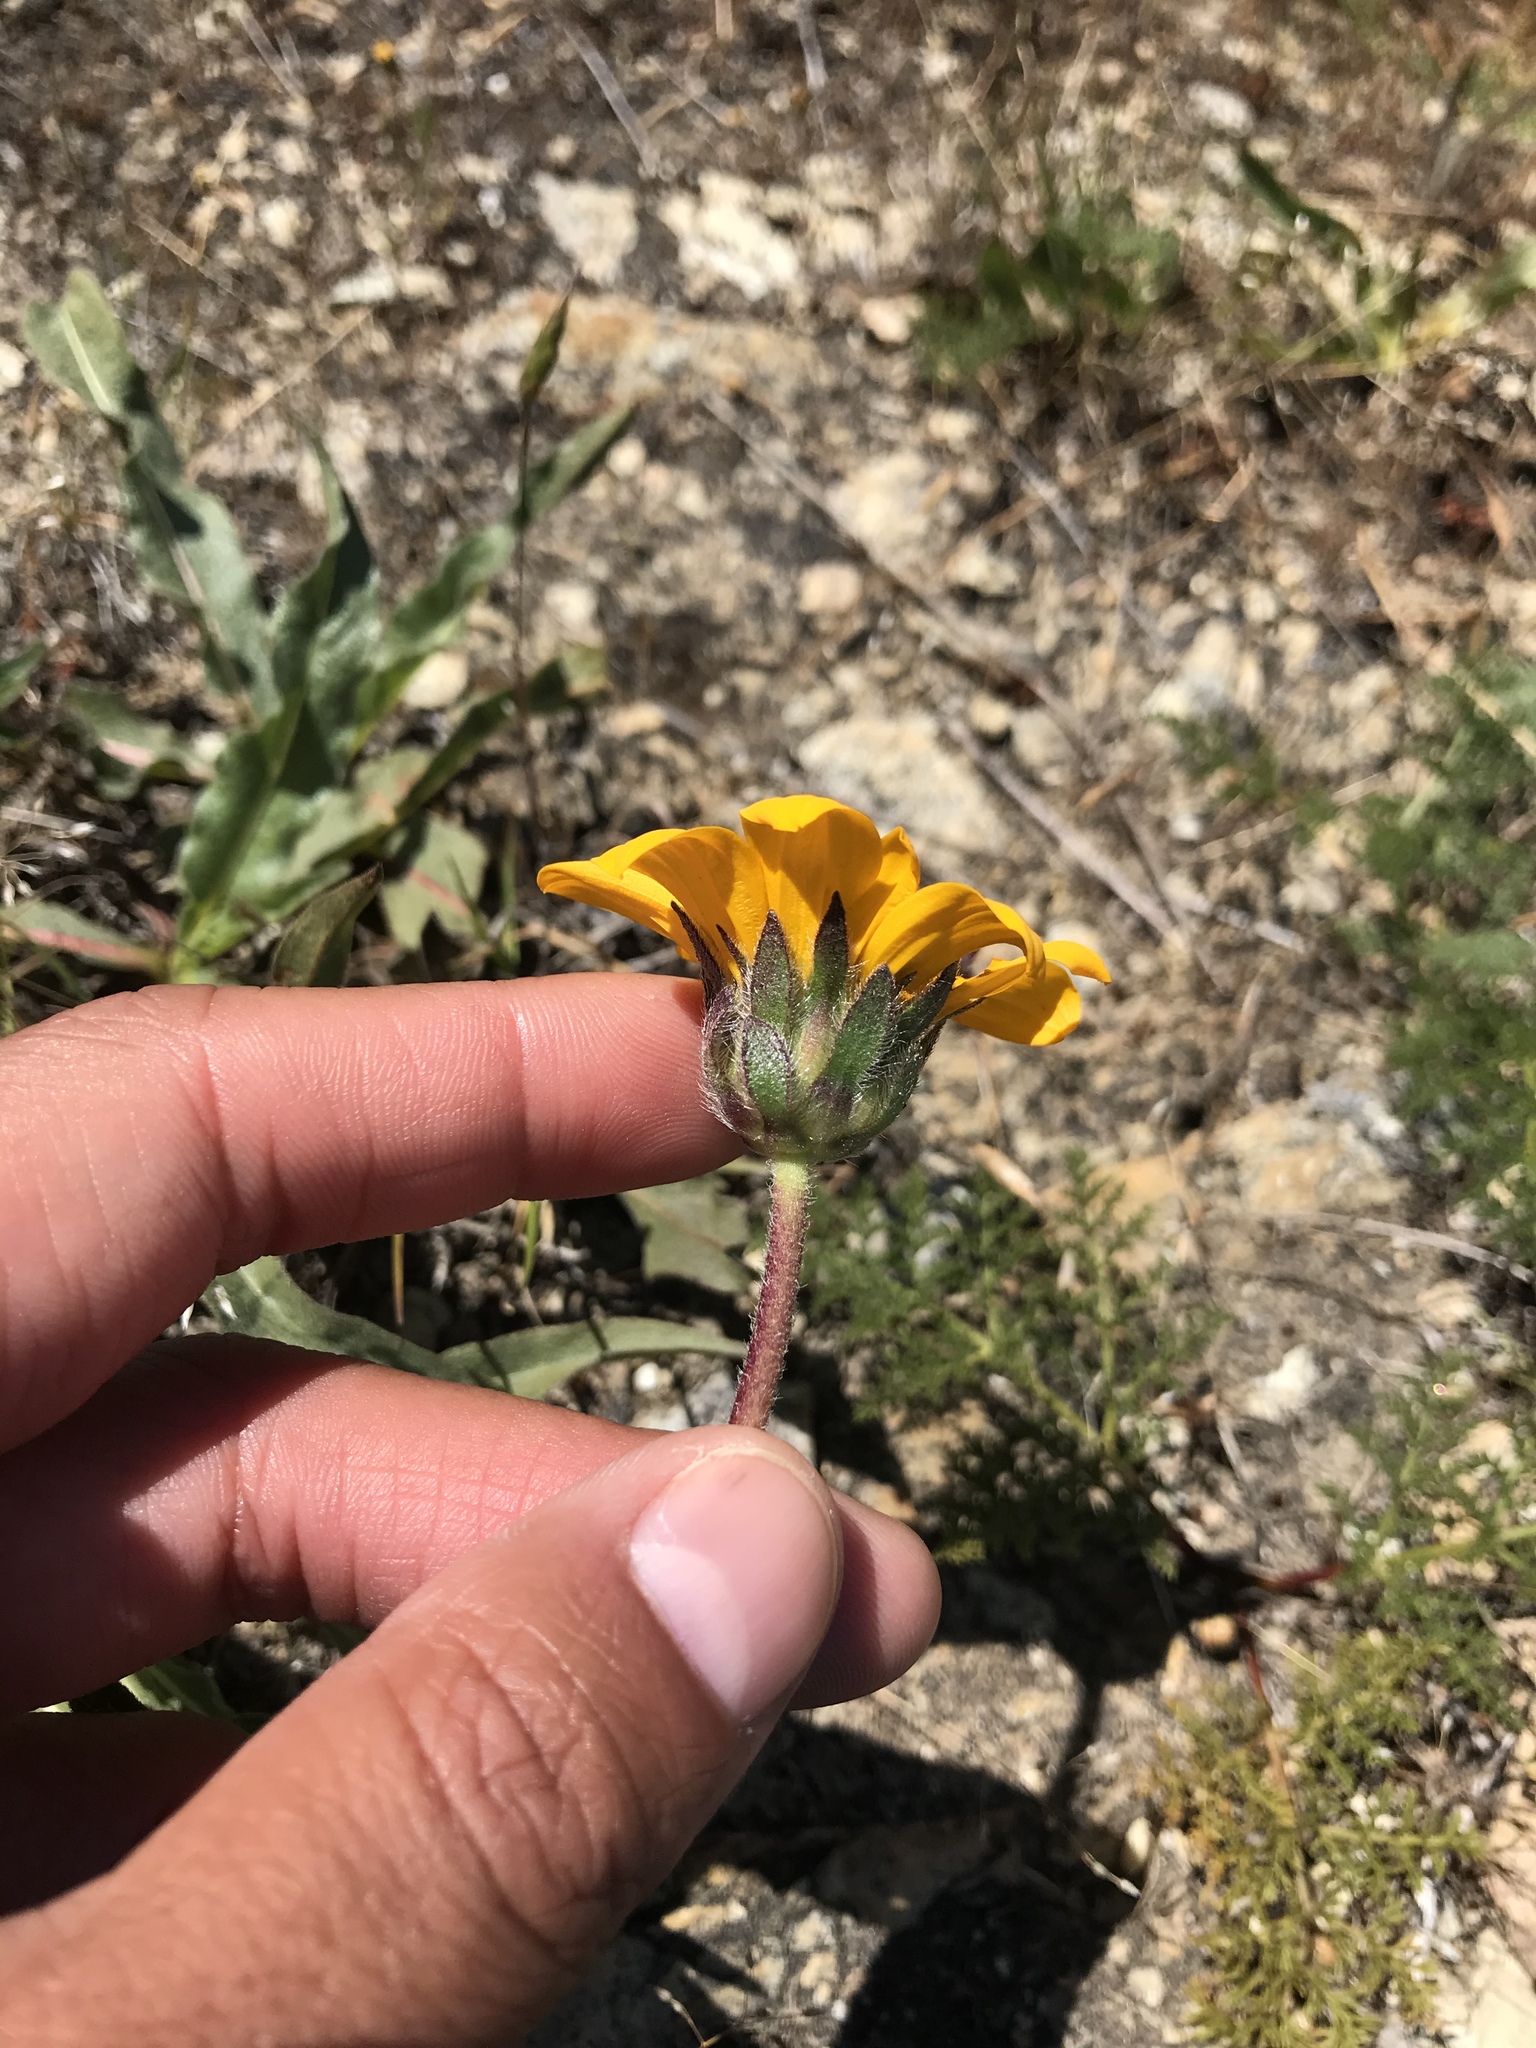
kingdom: Plantae
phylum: Tracheophyta
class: Magnoliopsida
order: Asterales
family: Asteraceae
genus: Wyethia
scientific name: Wyethia angustifolia
